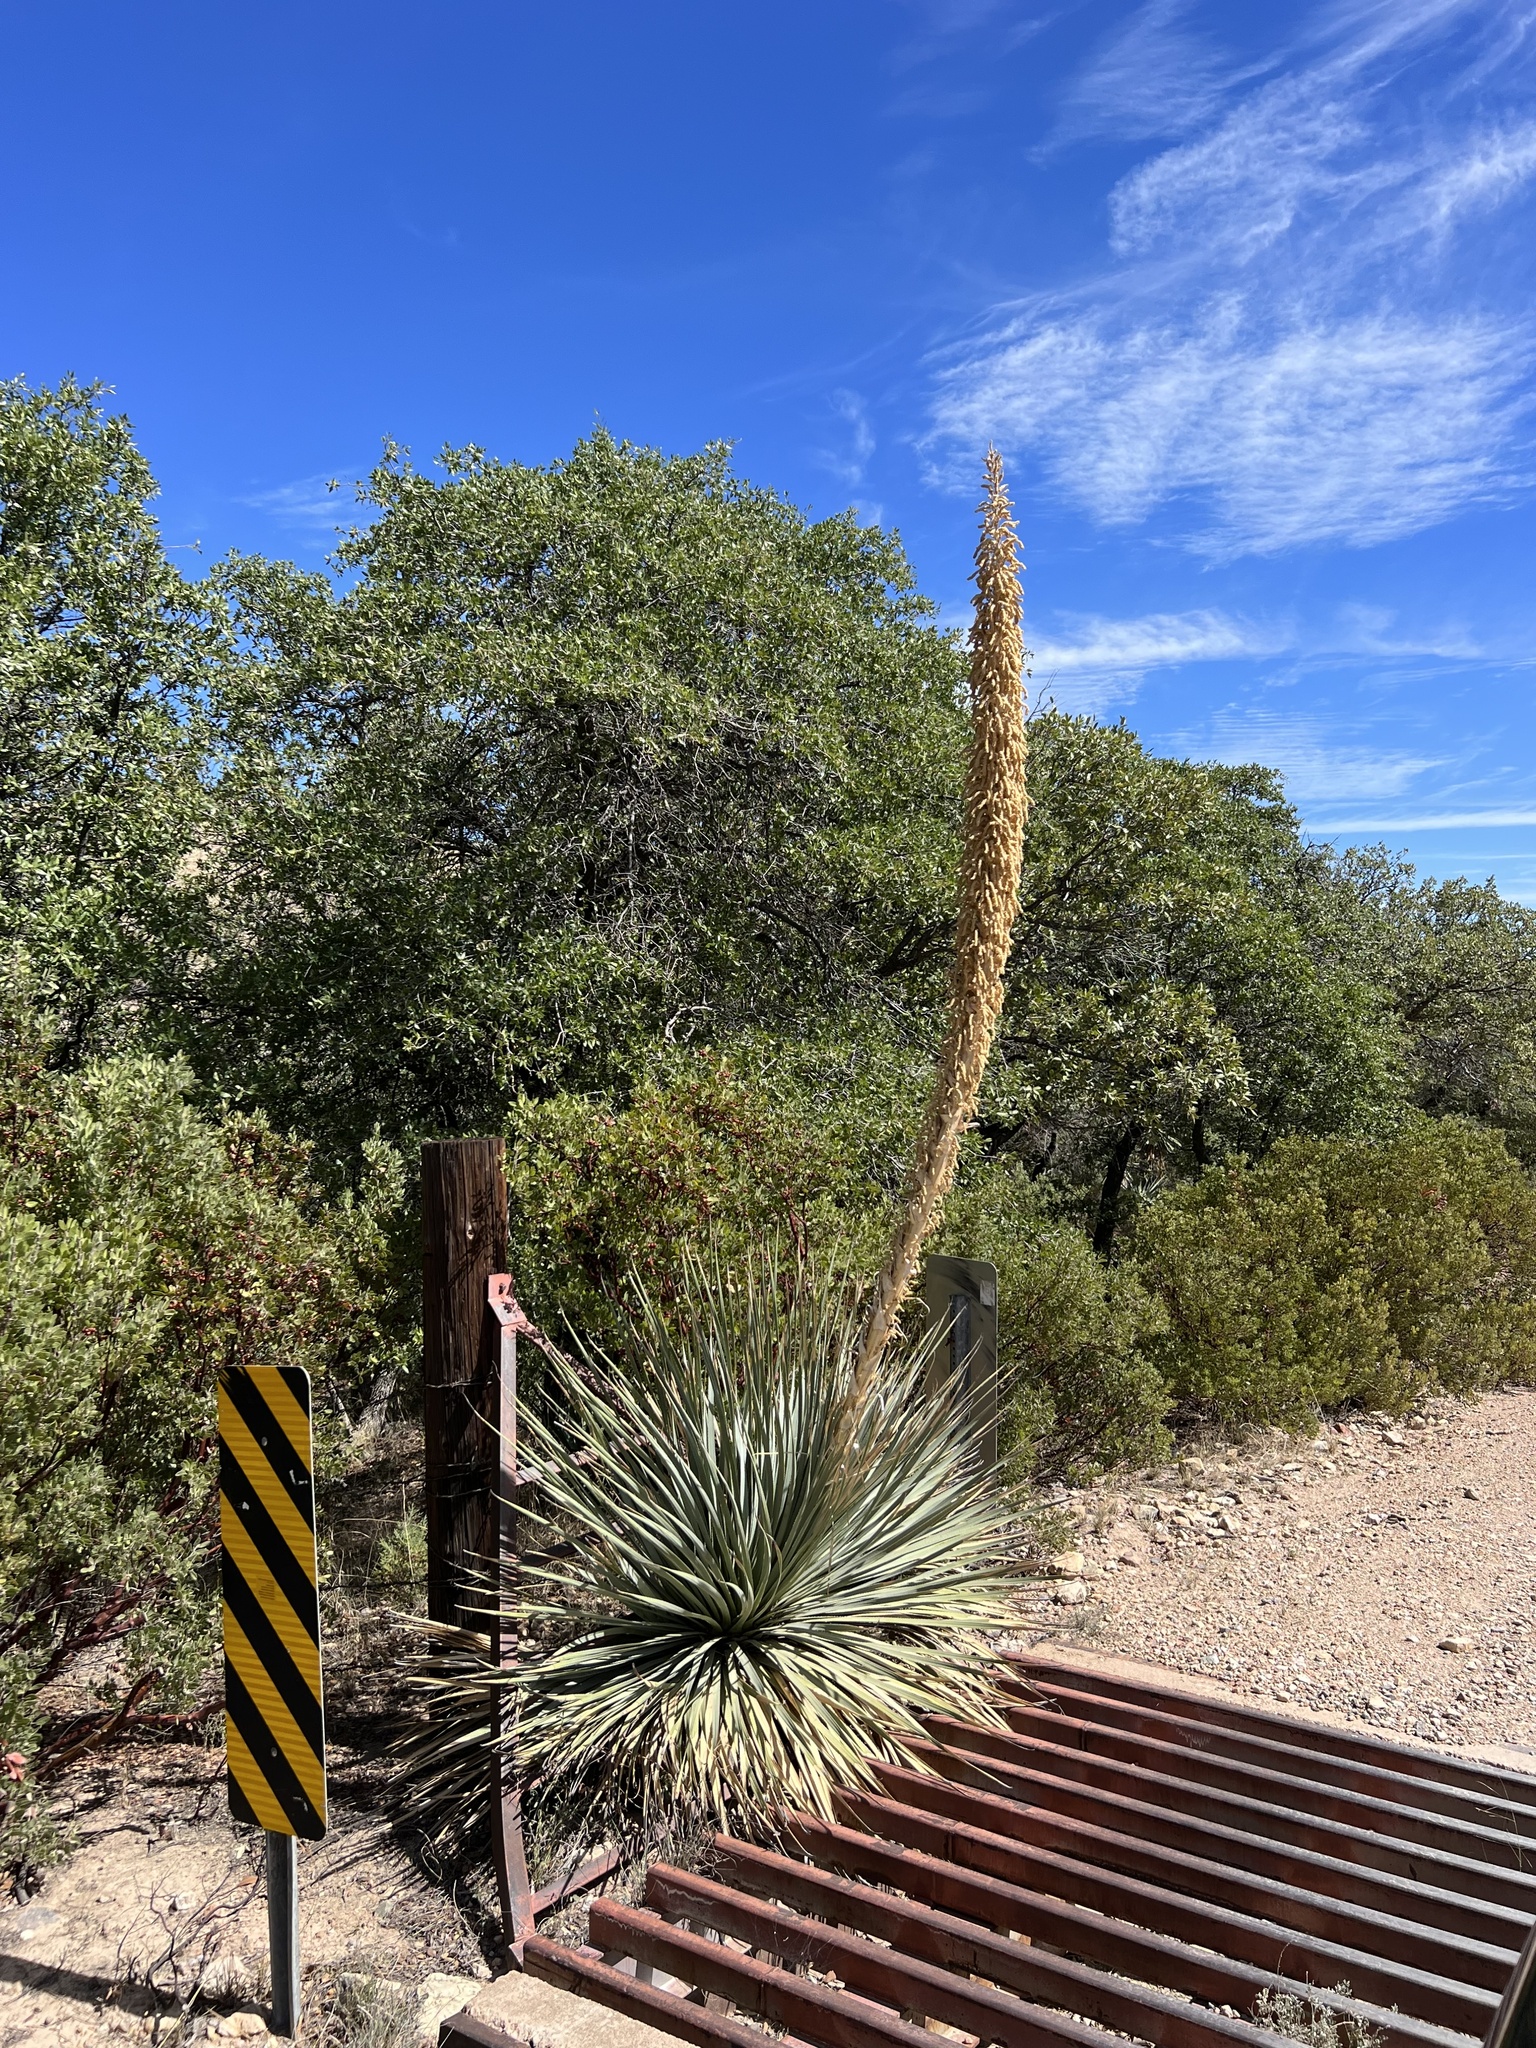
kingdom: Plantae
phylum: Tracheophyta
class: Liliopsida
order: Asparagales
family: Asparagaceae
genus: Dasylirion
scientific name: Dasylirion wheeleri
